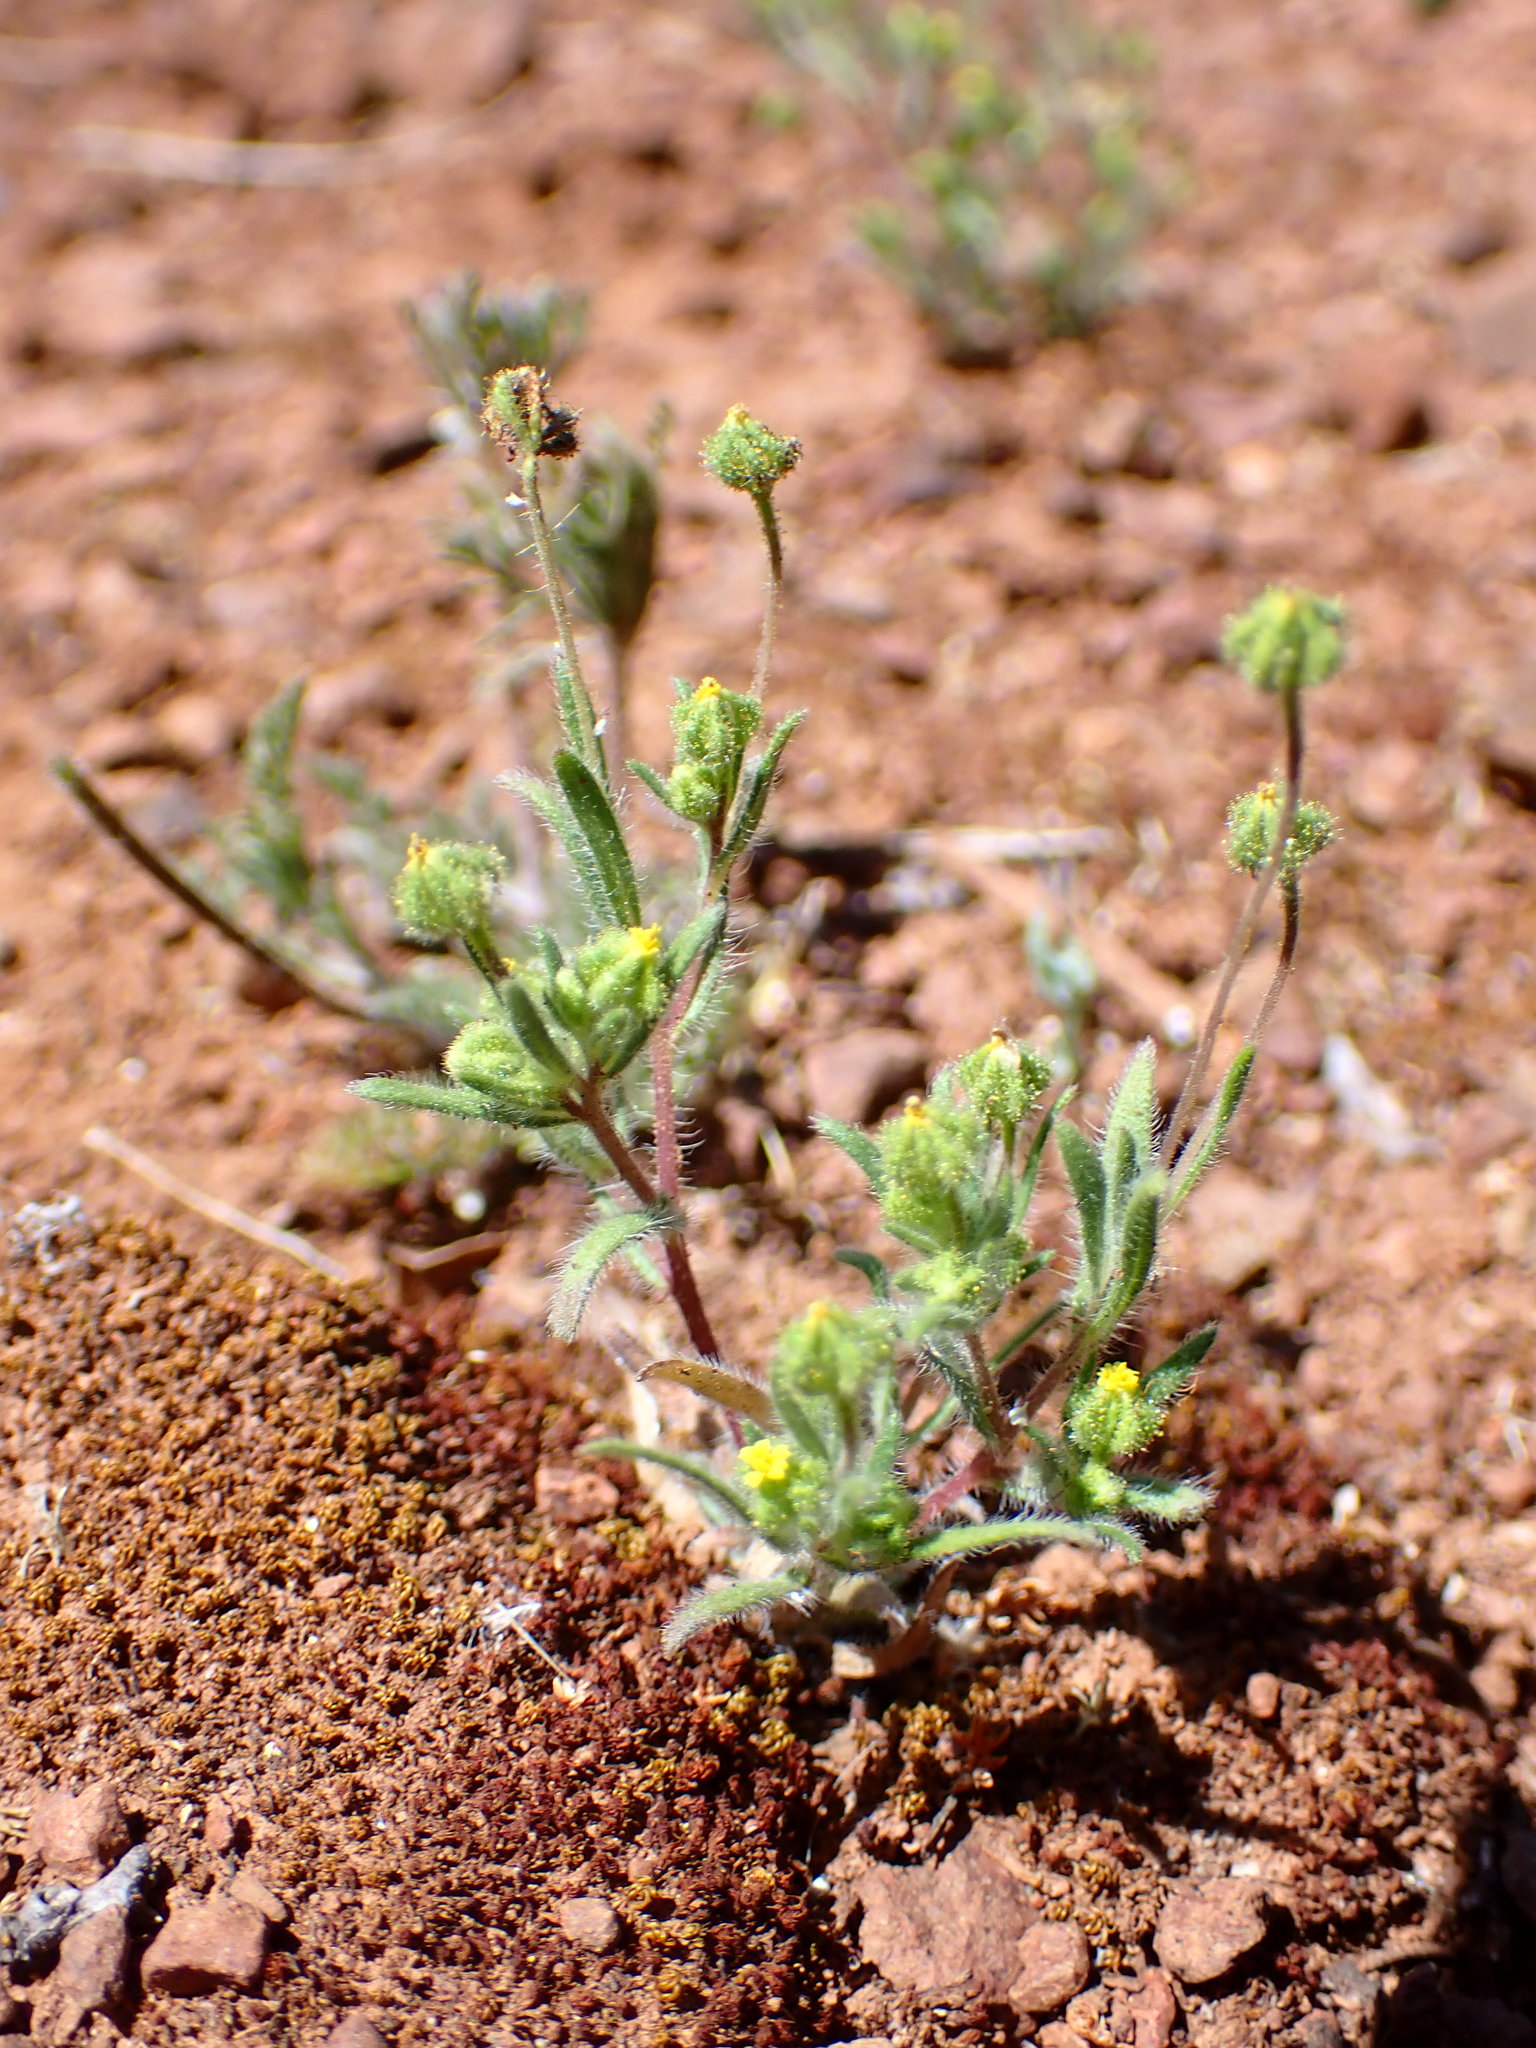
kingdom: Plantae
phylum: Tracheophyta
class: Magnoliopsida
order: Asterales
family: Asteraceae
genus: Madia
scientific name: Madia exigua
